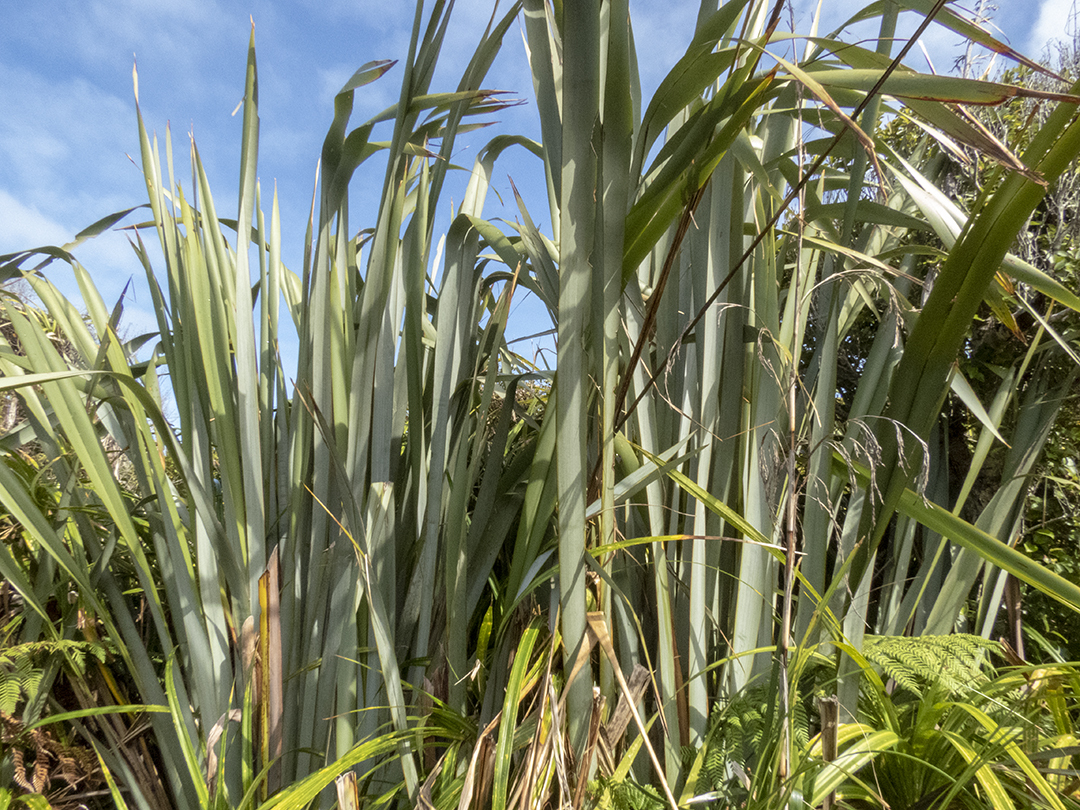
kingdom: Plantae
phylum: Tracheophyta
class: Liliopsida
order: Asparagales
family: Asphodelaceae
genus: Phormium
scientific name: Phormium tenax
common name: New zealand flax
